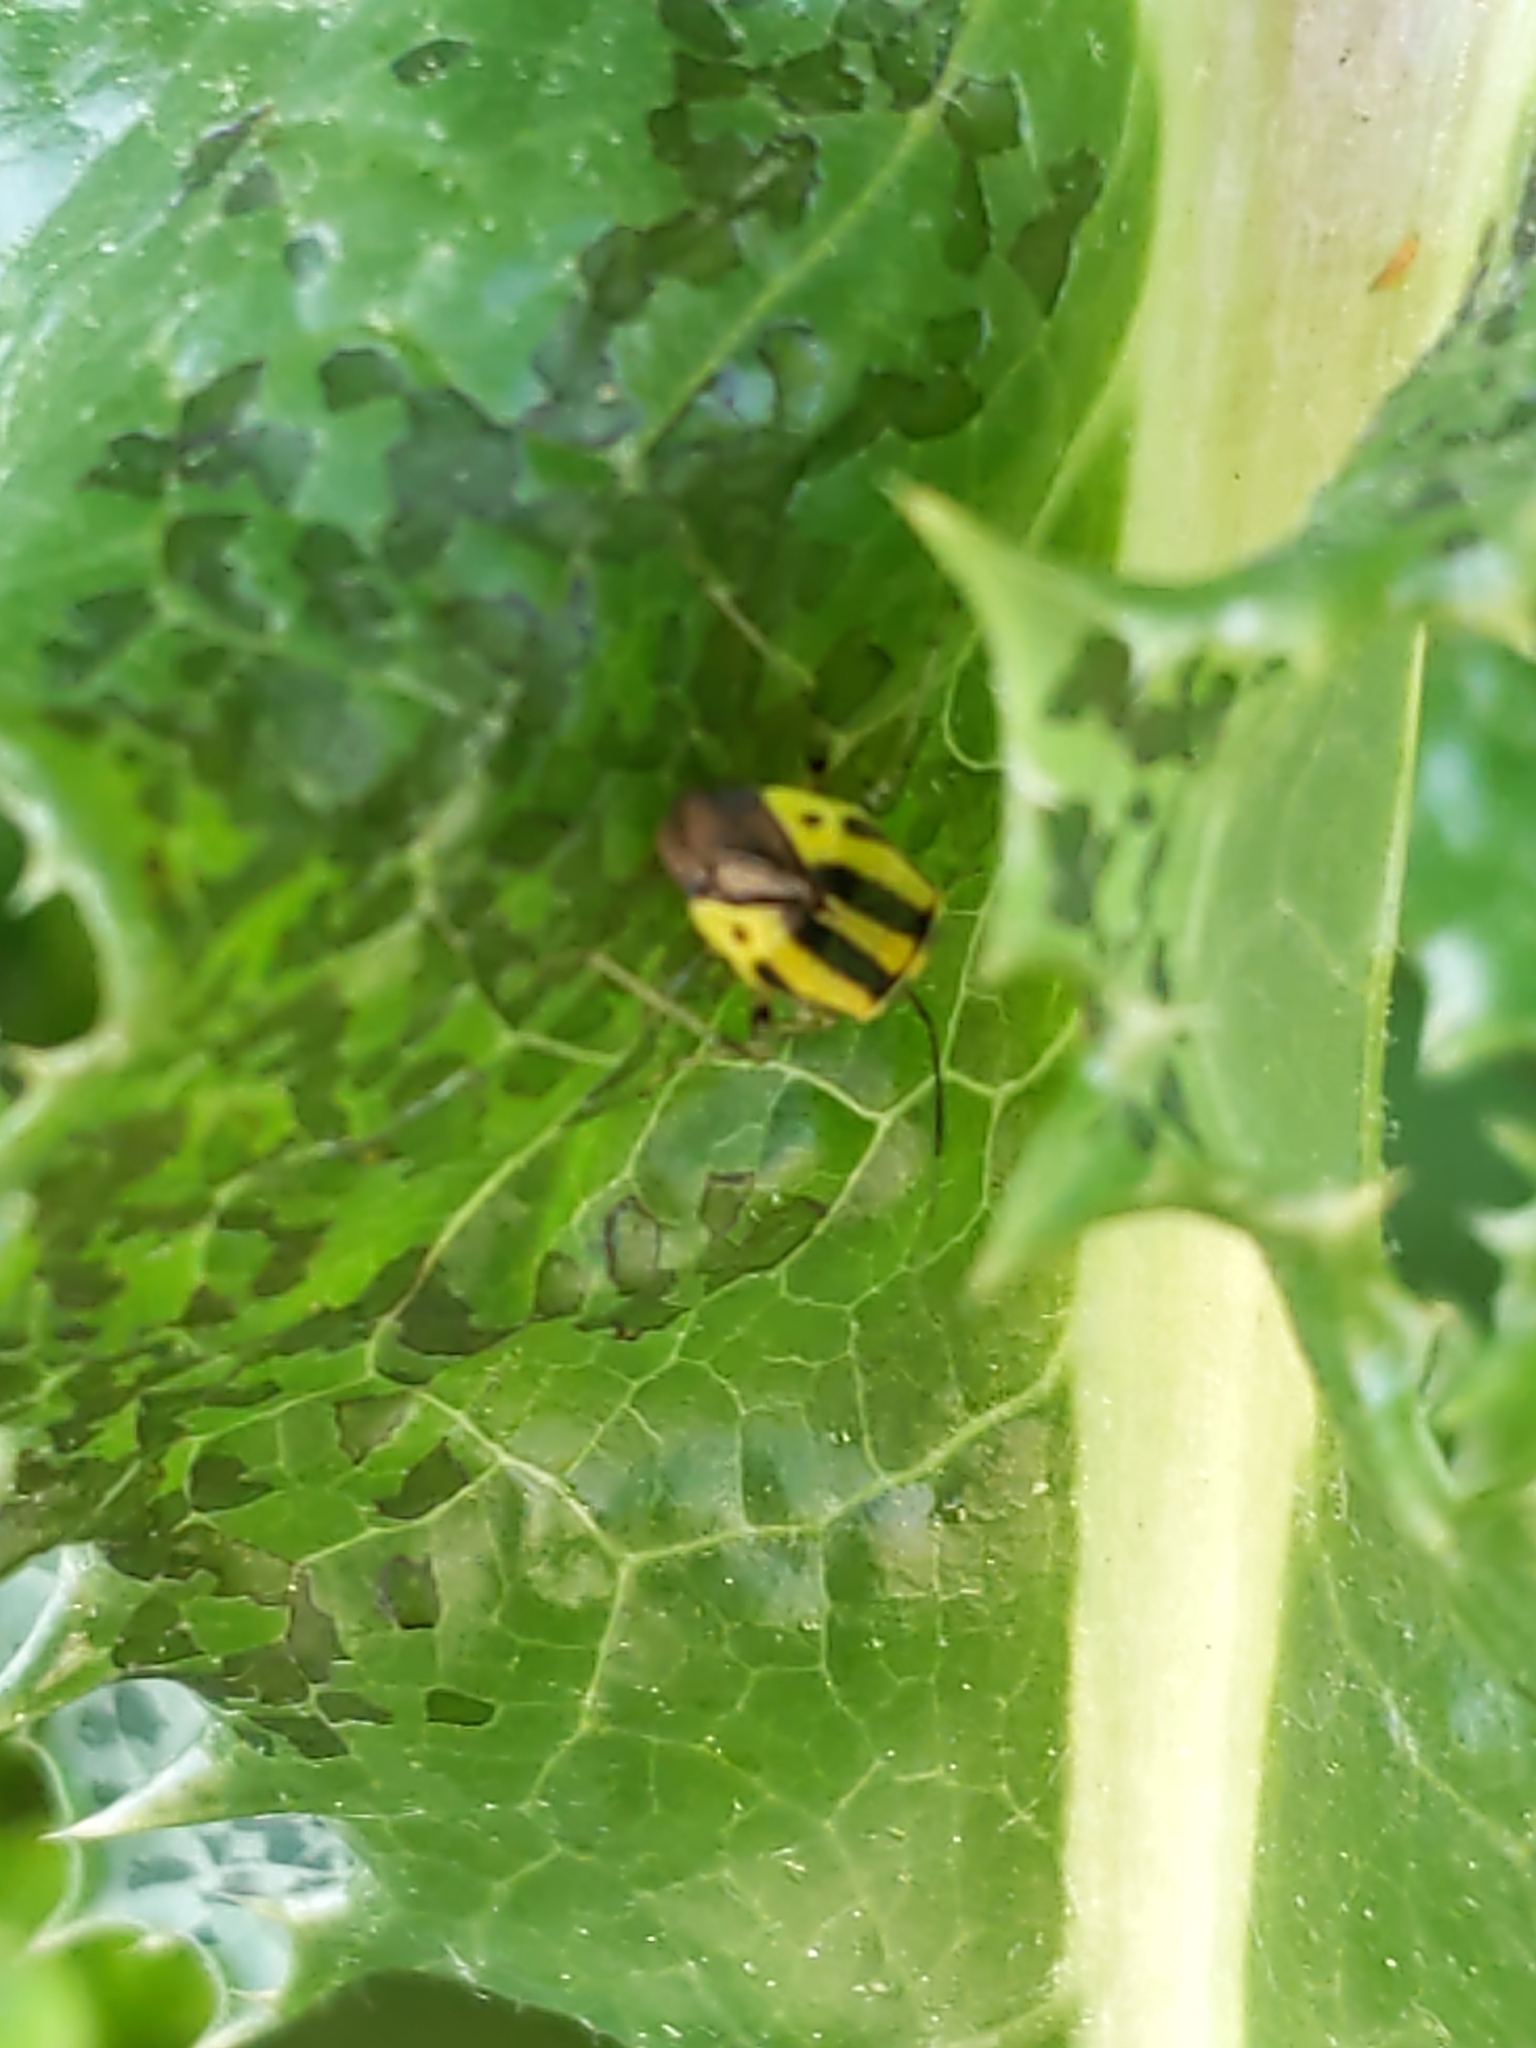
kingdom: Animalia
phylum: Arthropoda
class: Insecta
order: Hemiptera
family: Miridae
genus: Poecilocapsus
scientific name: Poecilocapsus lineatus
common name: Four-lined plant bug
